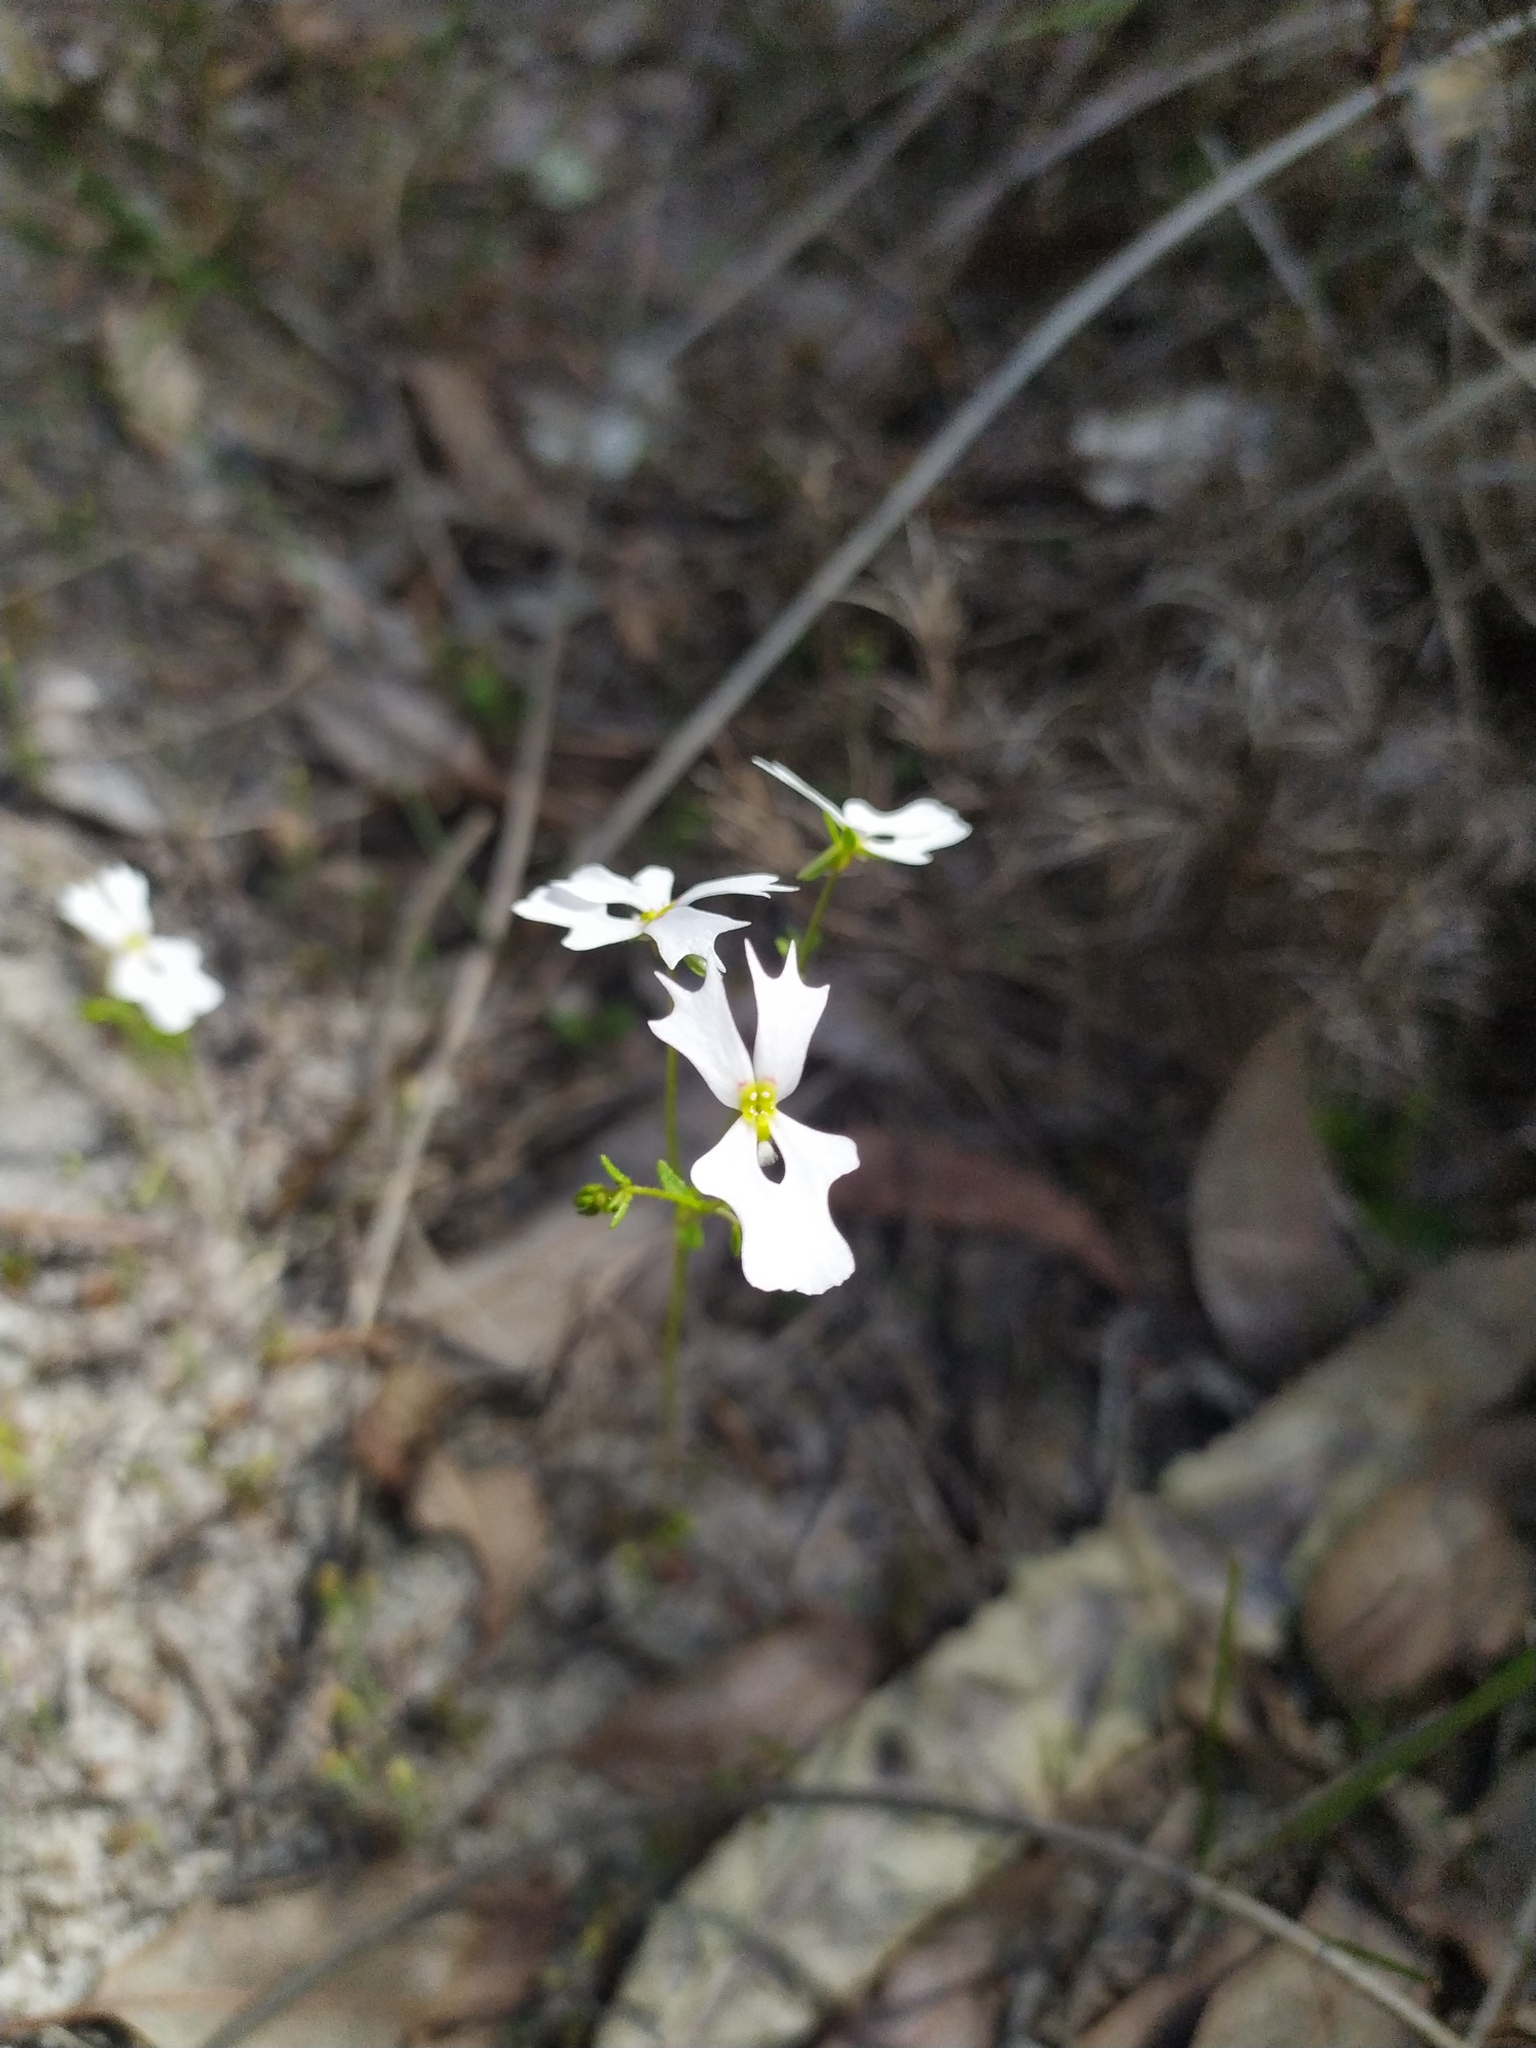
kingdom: Plantae
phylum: Tracheophyta
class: Magnoliopsida
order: Asterales
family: Stylidiaceae
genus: Stylidium
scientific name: Stylidium androsaceum
